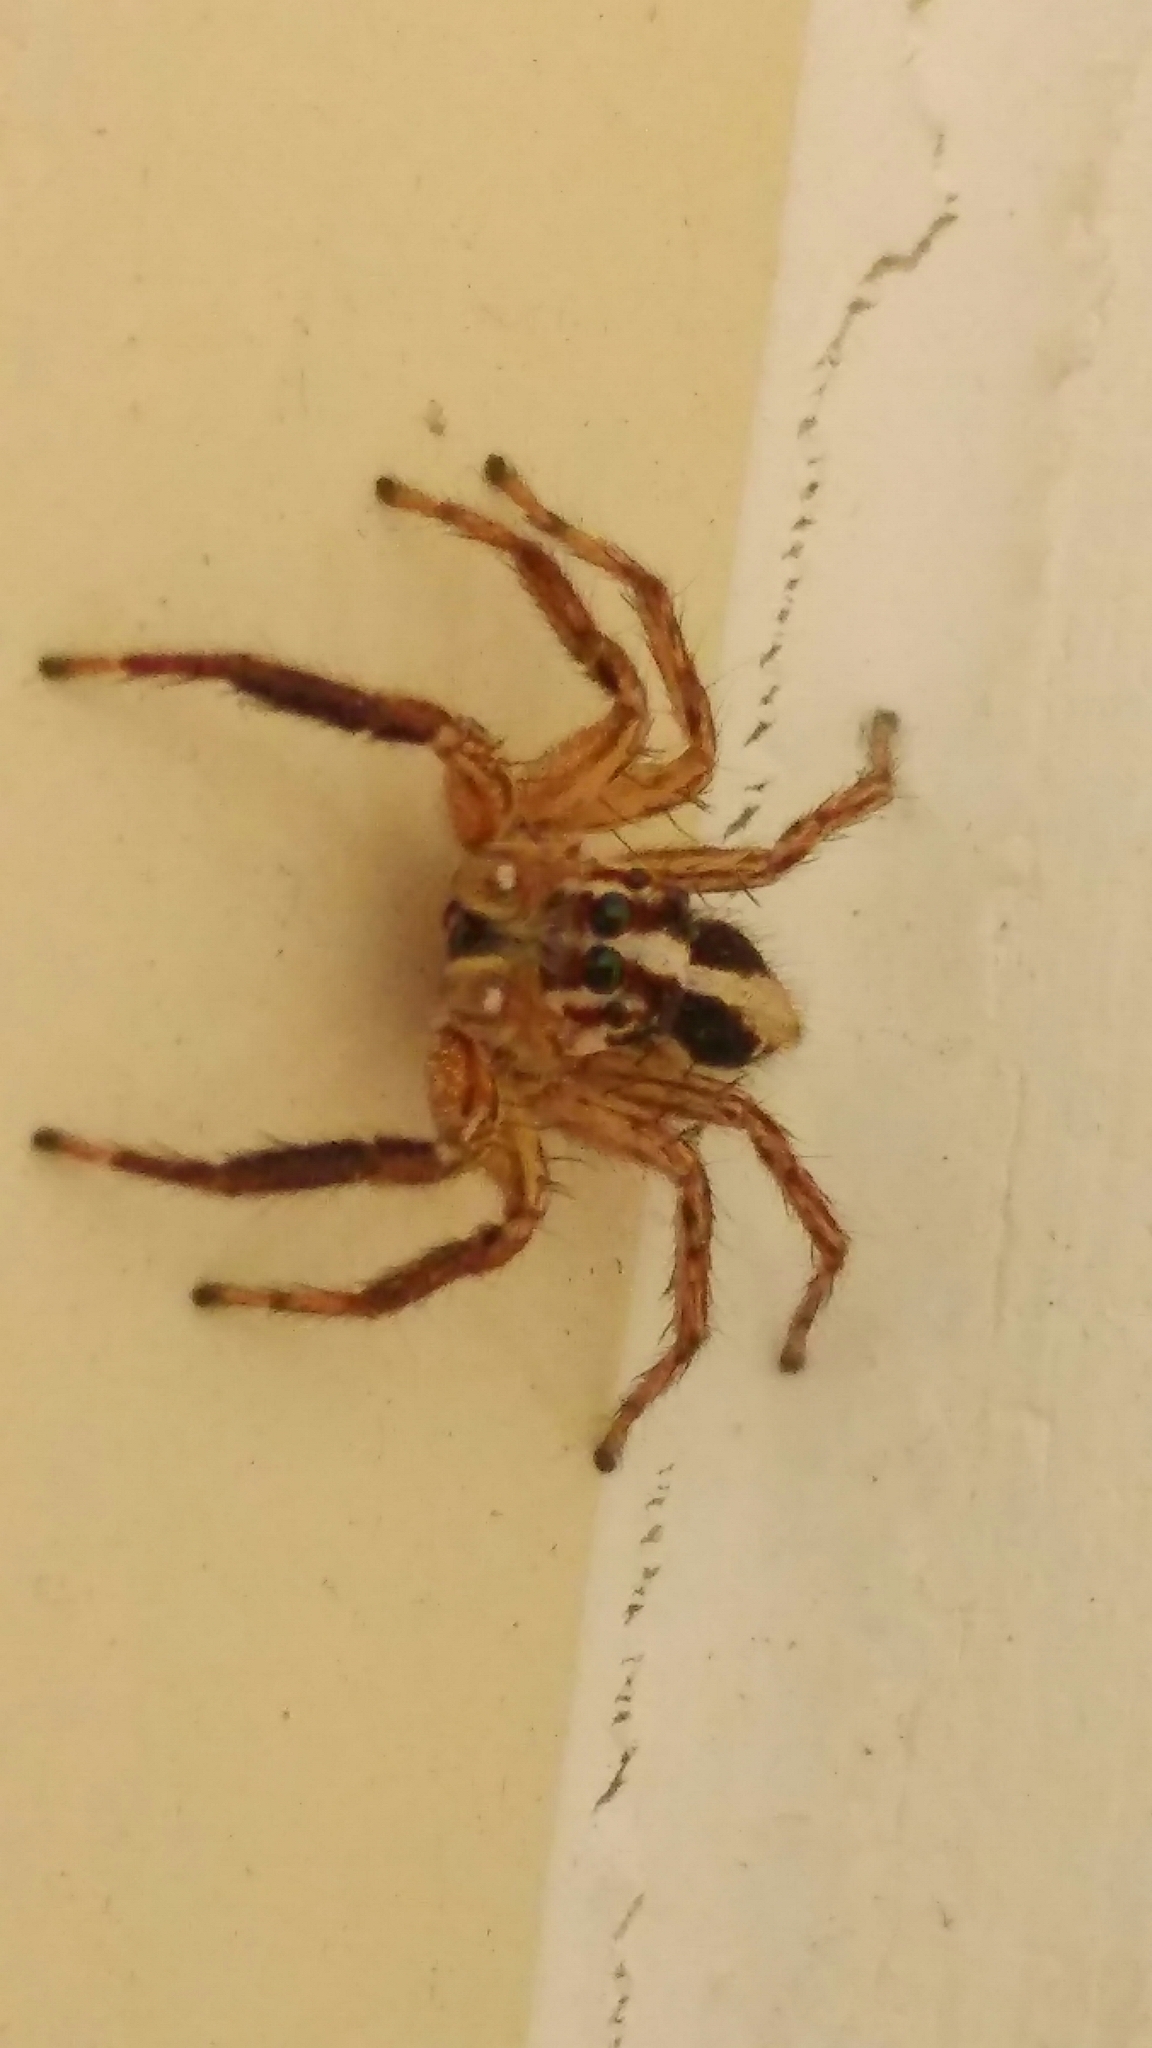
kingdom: Animalia
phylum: Arthropoda
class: Arachnida
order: Araneae
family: Salticidae
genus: Plexippus
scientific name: Plexippus paykulli
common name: Pantropical jumper
